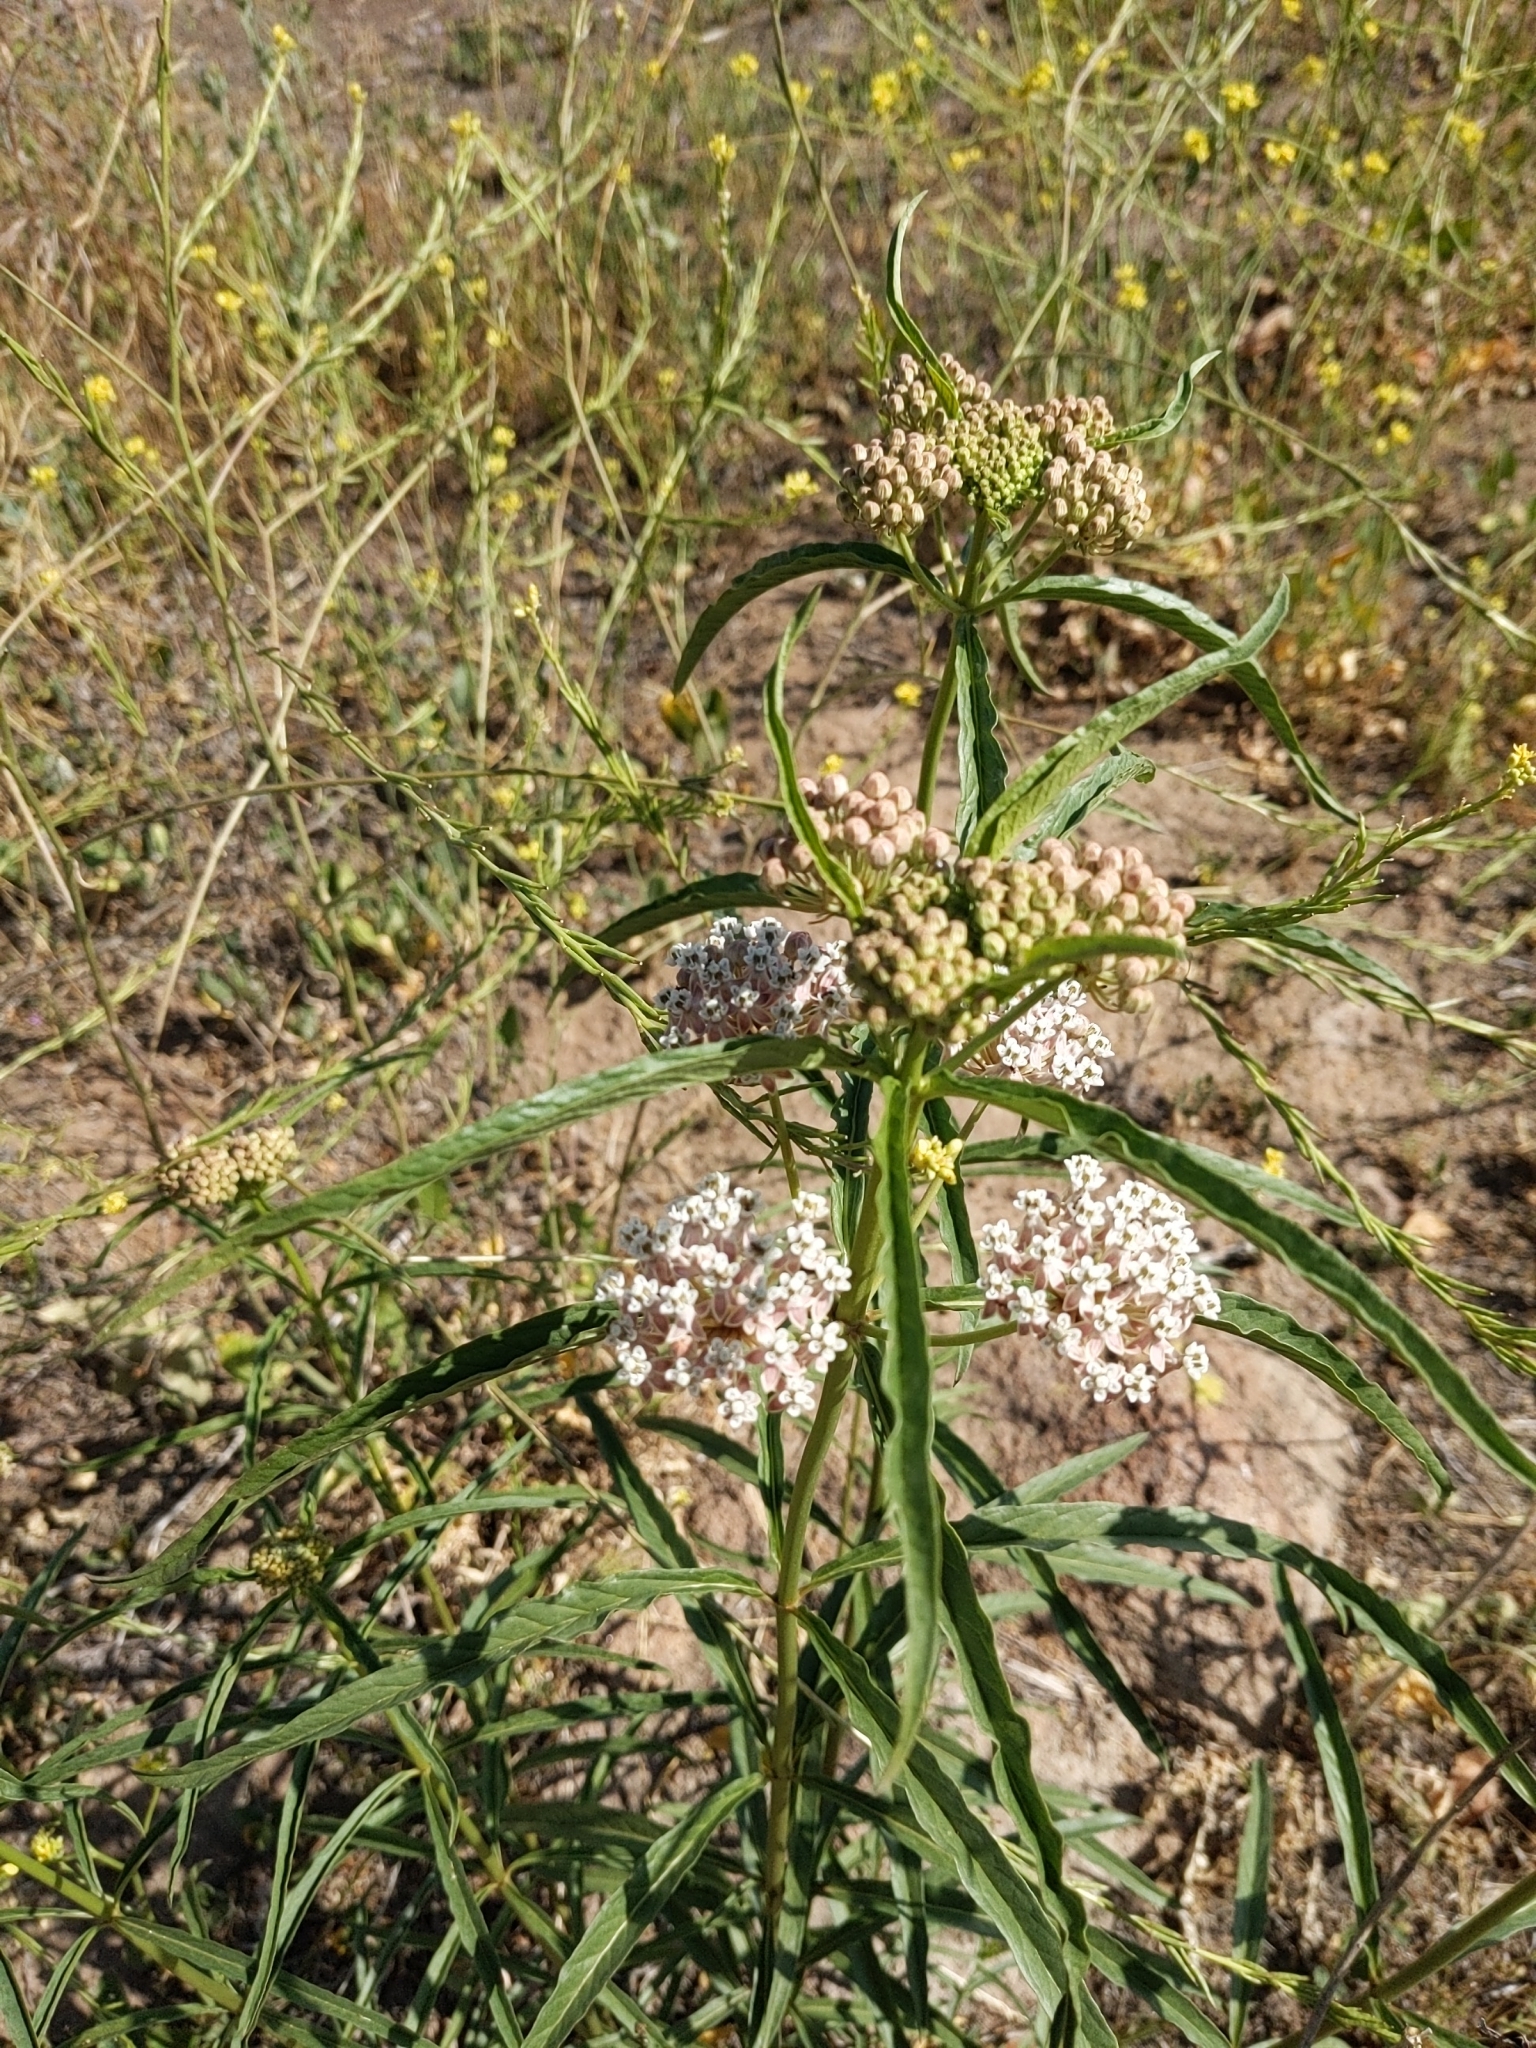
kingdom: Plantae
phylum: Tracheophyta
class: Magnoliopsida
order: Gentianales
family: Apocynaceae
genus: Asclepias
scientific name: Asclepias fascicularis
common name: Mexican milkweed
